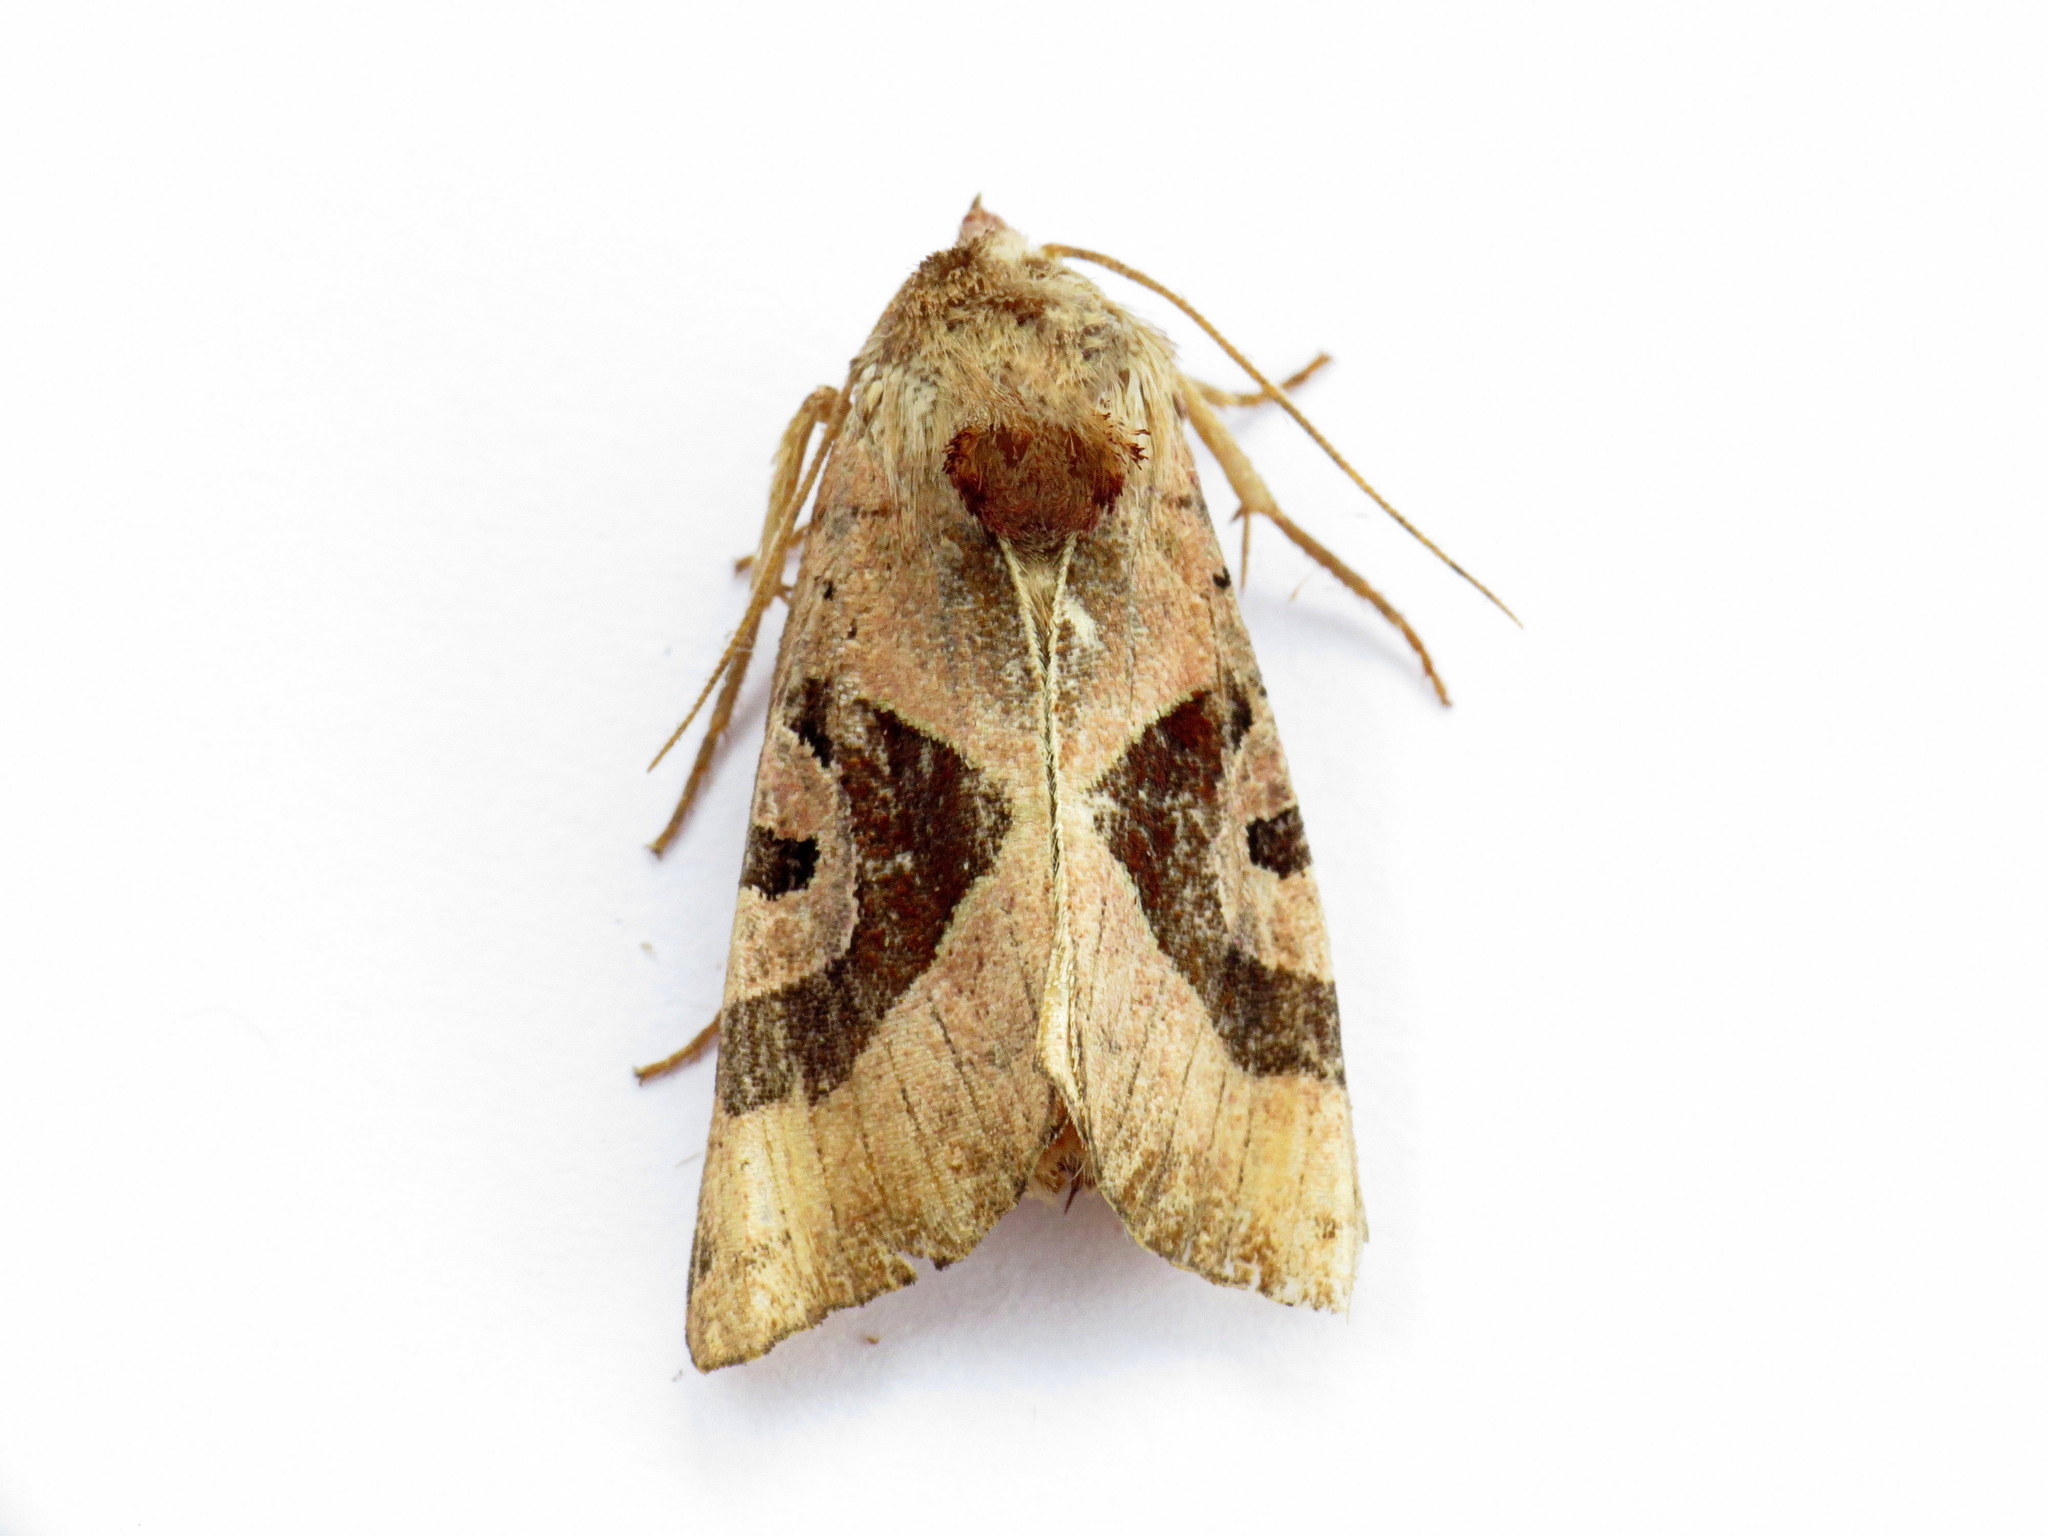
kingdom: Animalia
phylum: Arthropoda
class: Insecta
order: Lepidoptera
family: Noctuidae
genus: Conservula
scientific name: Conservula anodonta
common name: Sharp angle shades
